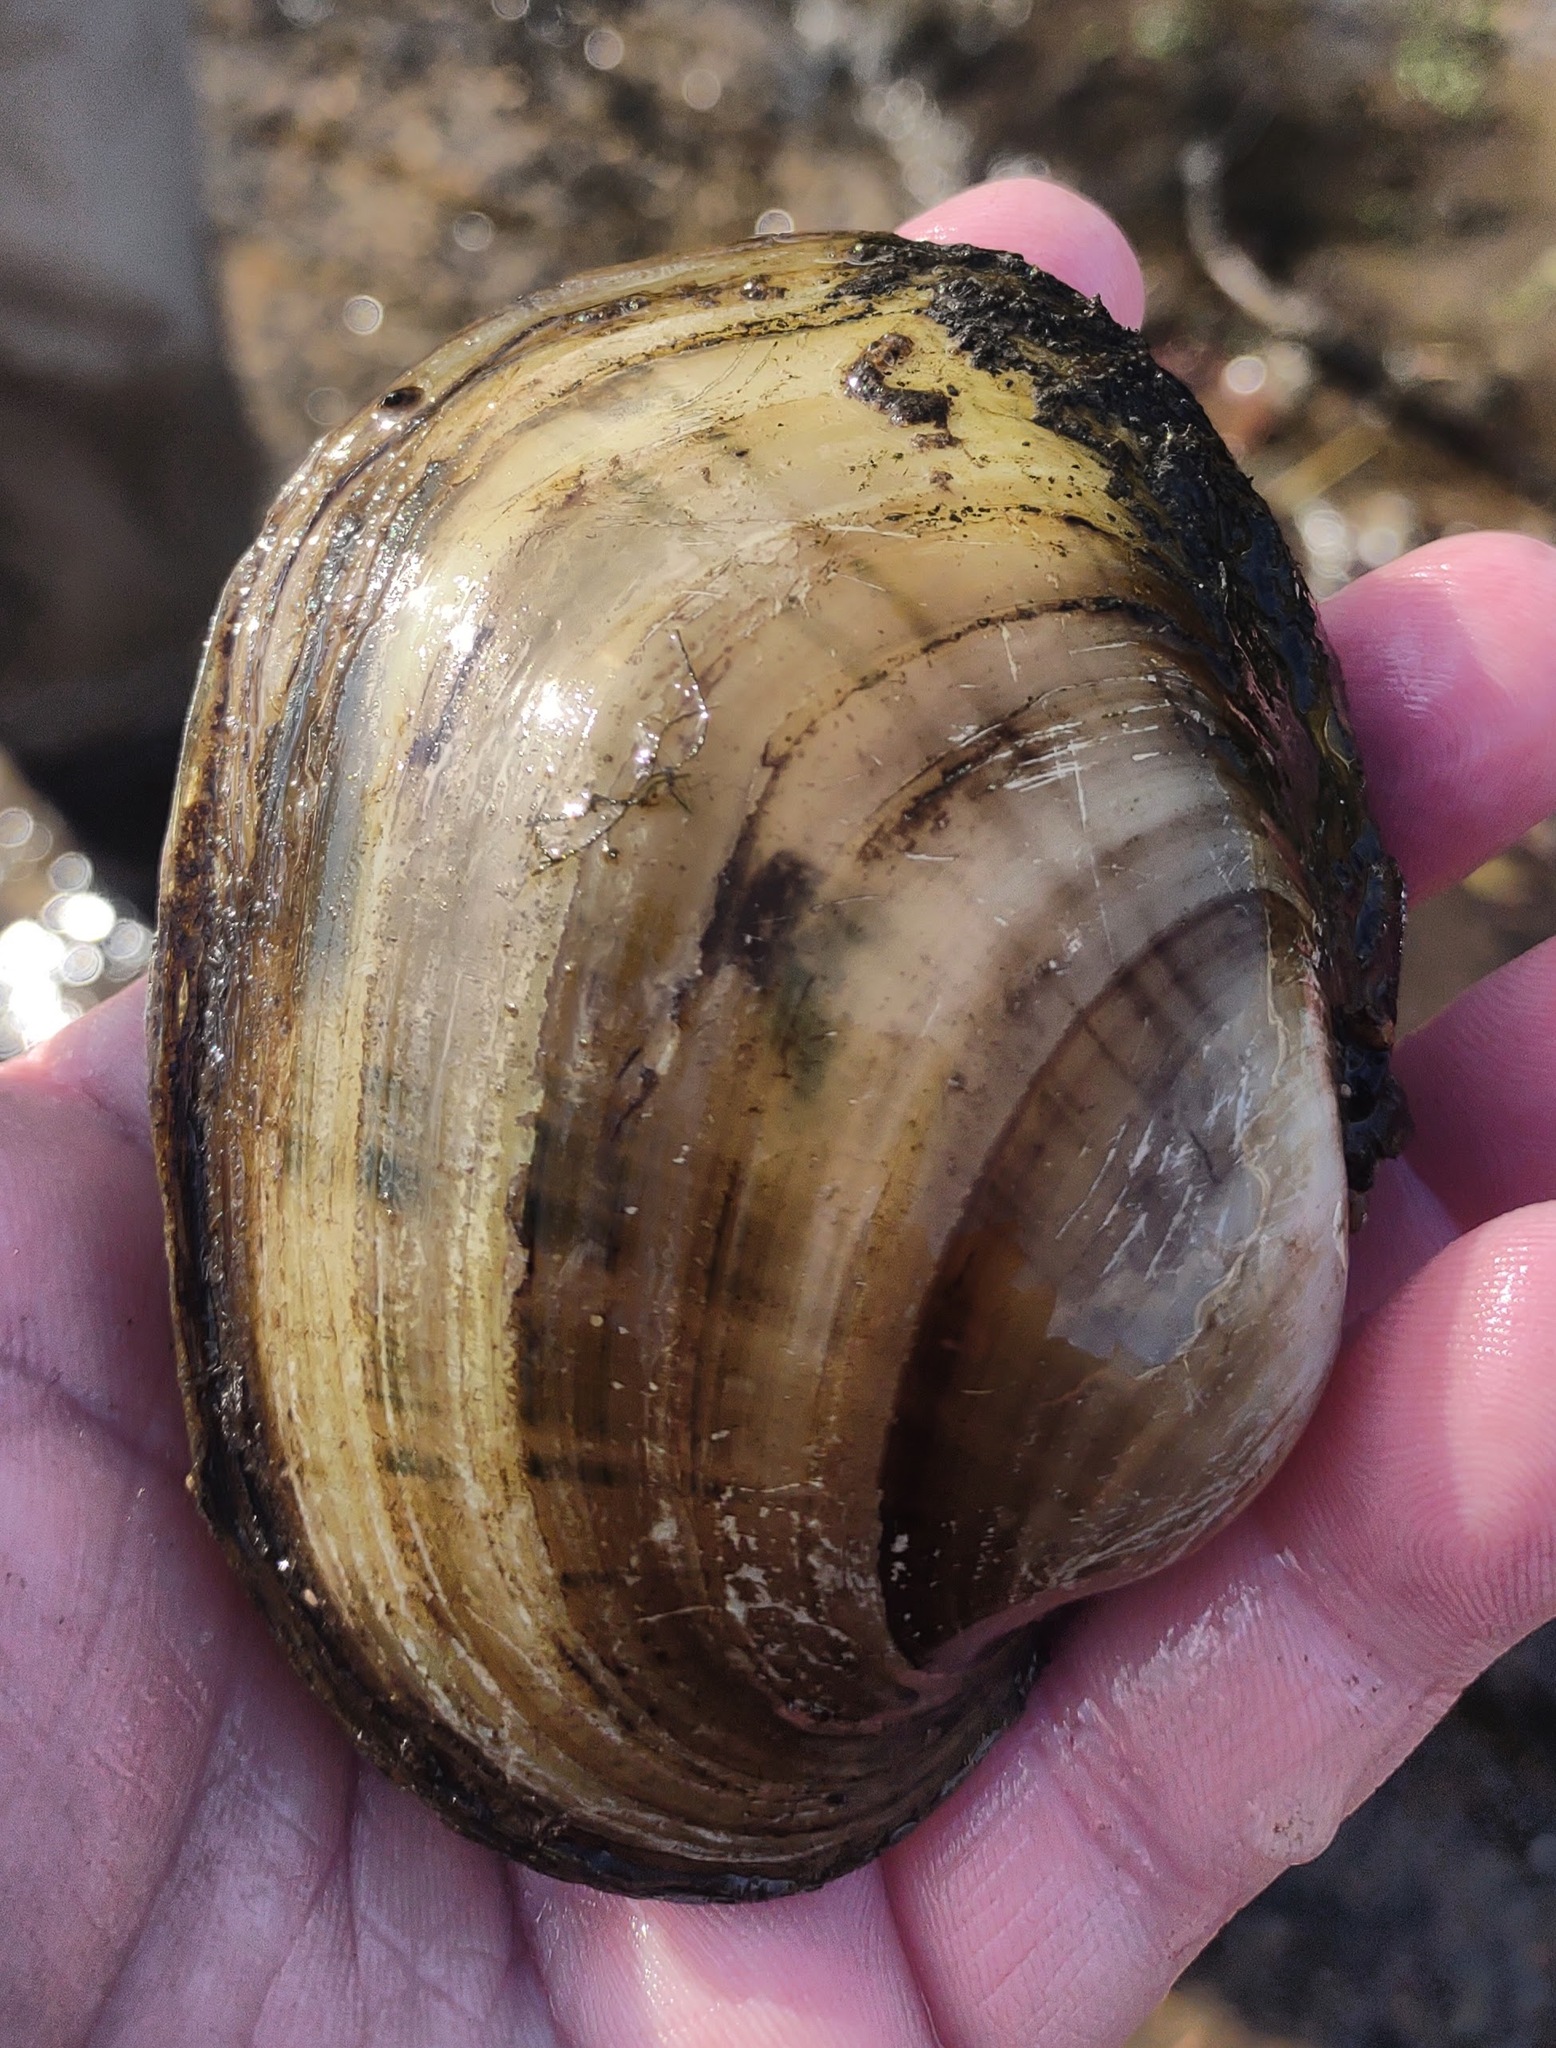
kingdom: Animalia
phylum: Mollusca
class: Bivalvia
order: Unionida
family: Unionidae
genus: Lampsilis
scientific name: Lampsilis cardium
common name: Plain pocketbook
